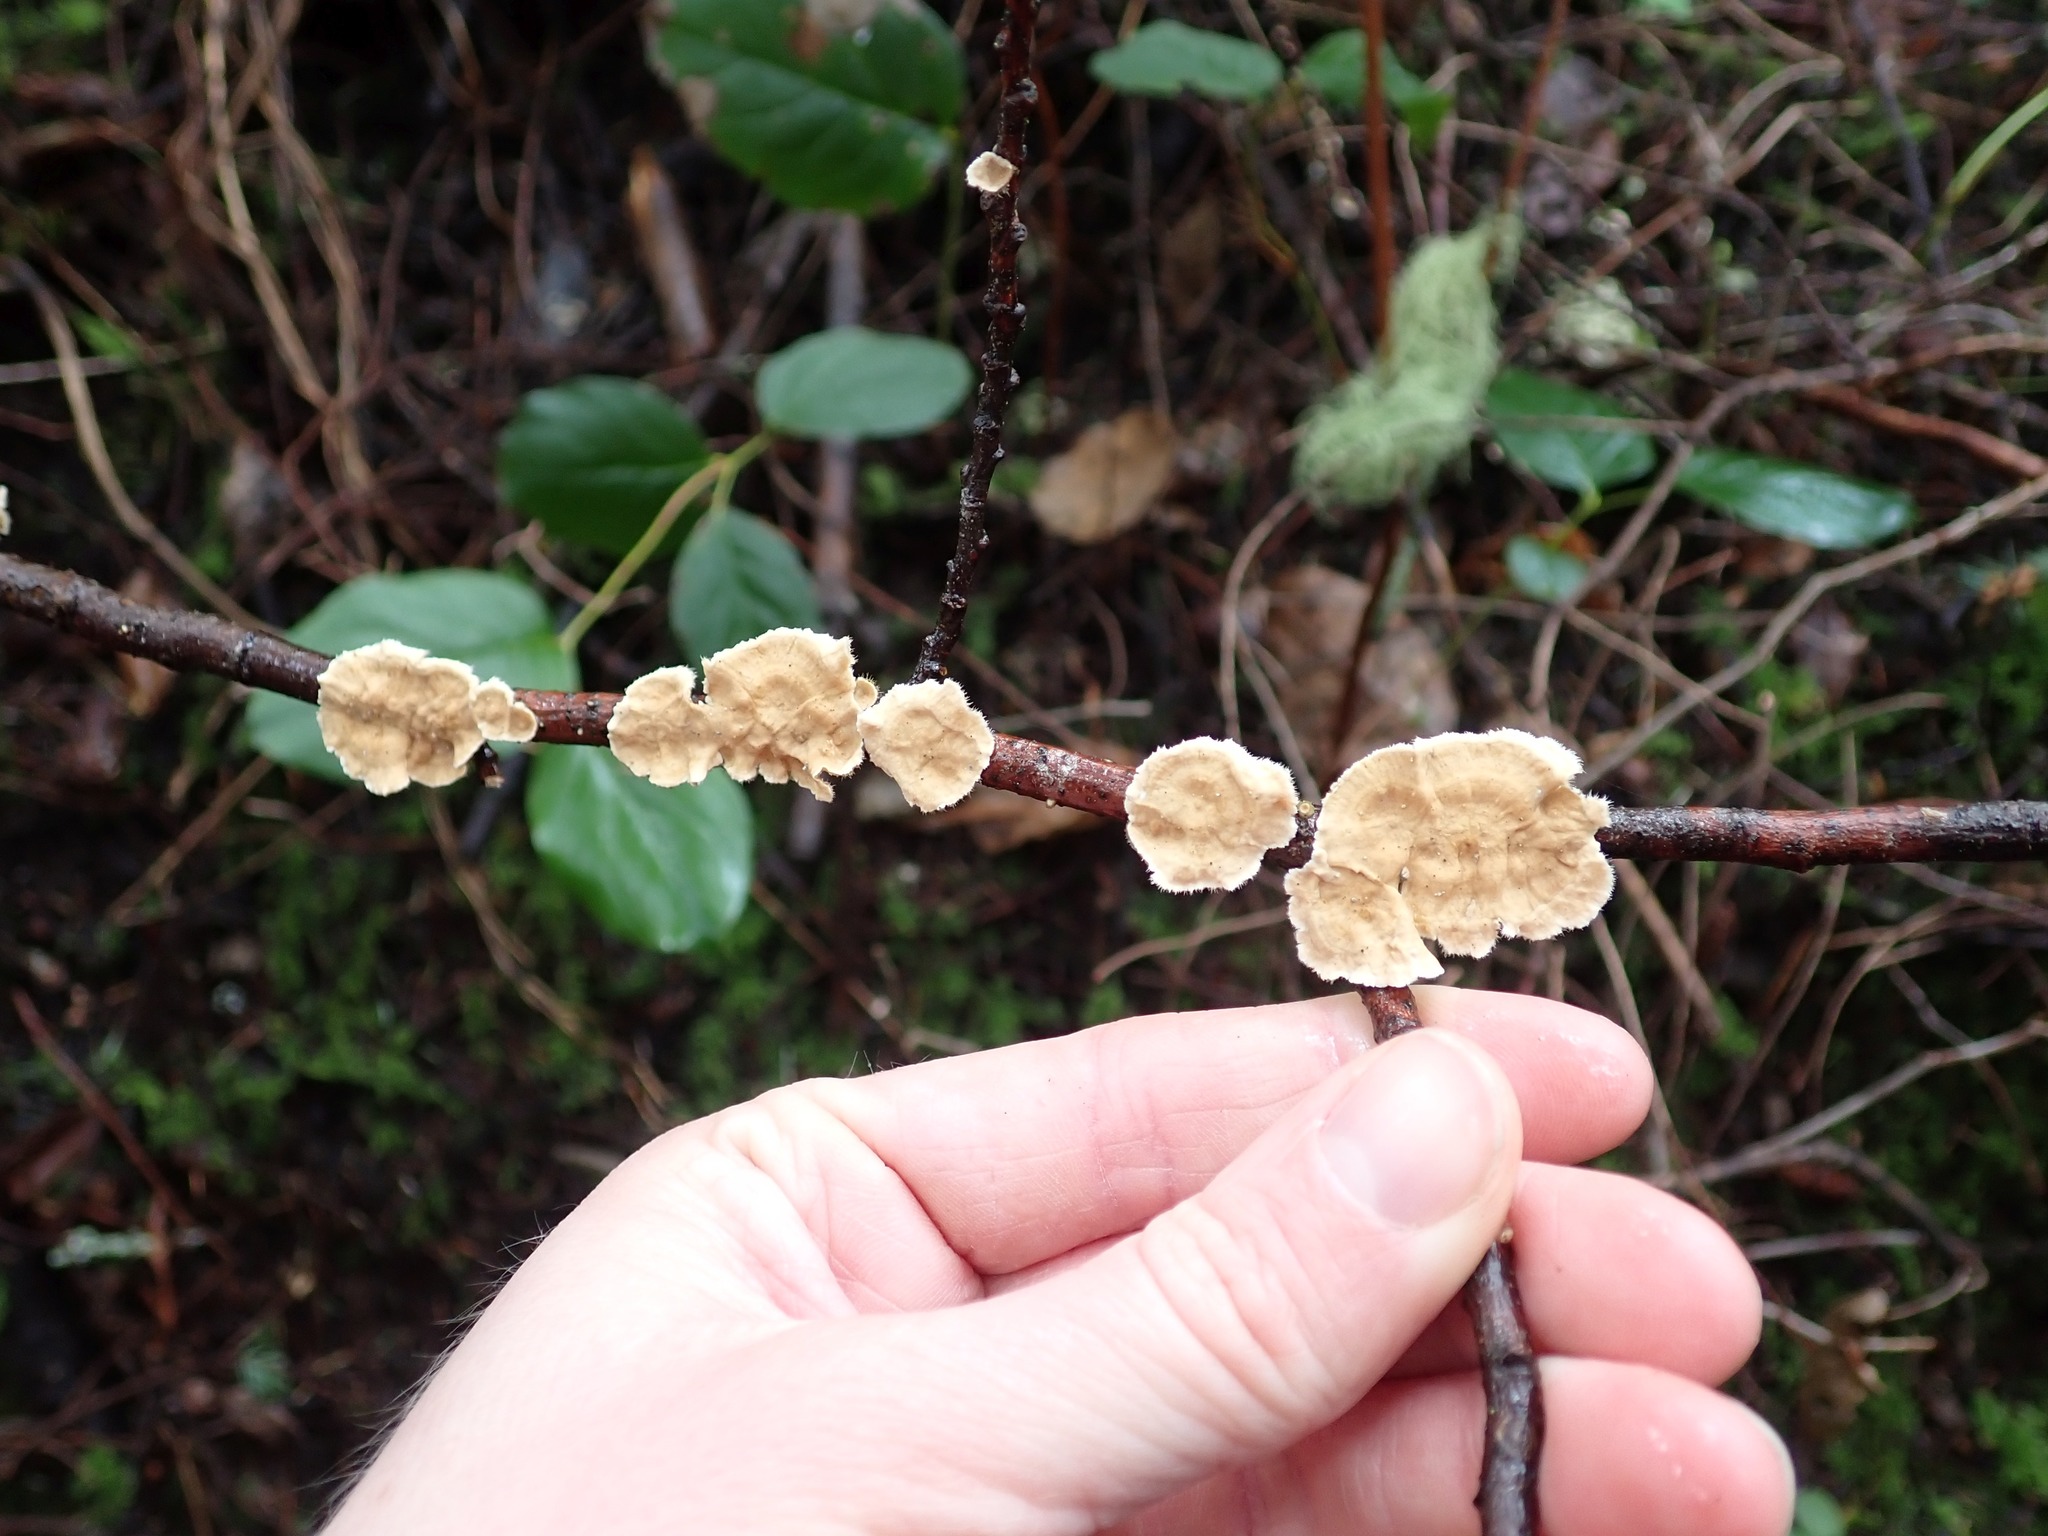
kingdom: Fungi
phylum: Basidiomycota
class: Agaricomycetes
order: Russulales
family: Stereaceae
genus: Stereum
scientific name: Stereum ochraceoflavum
